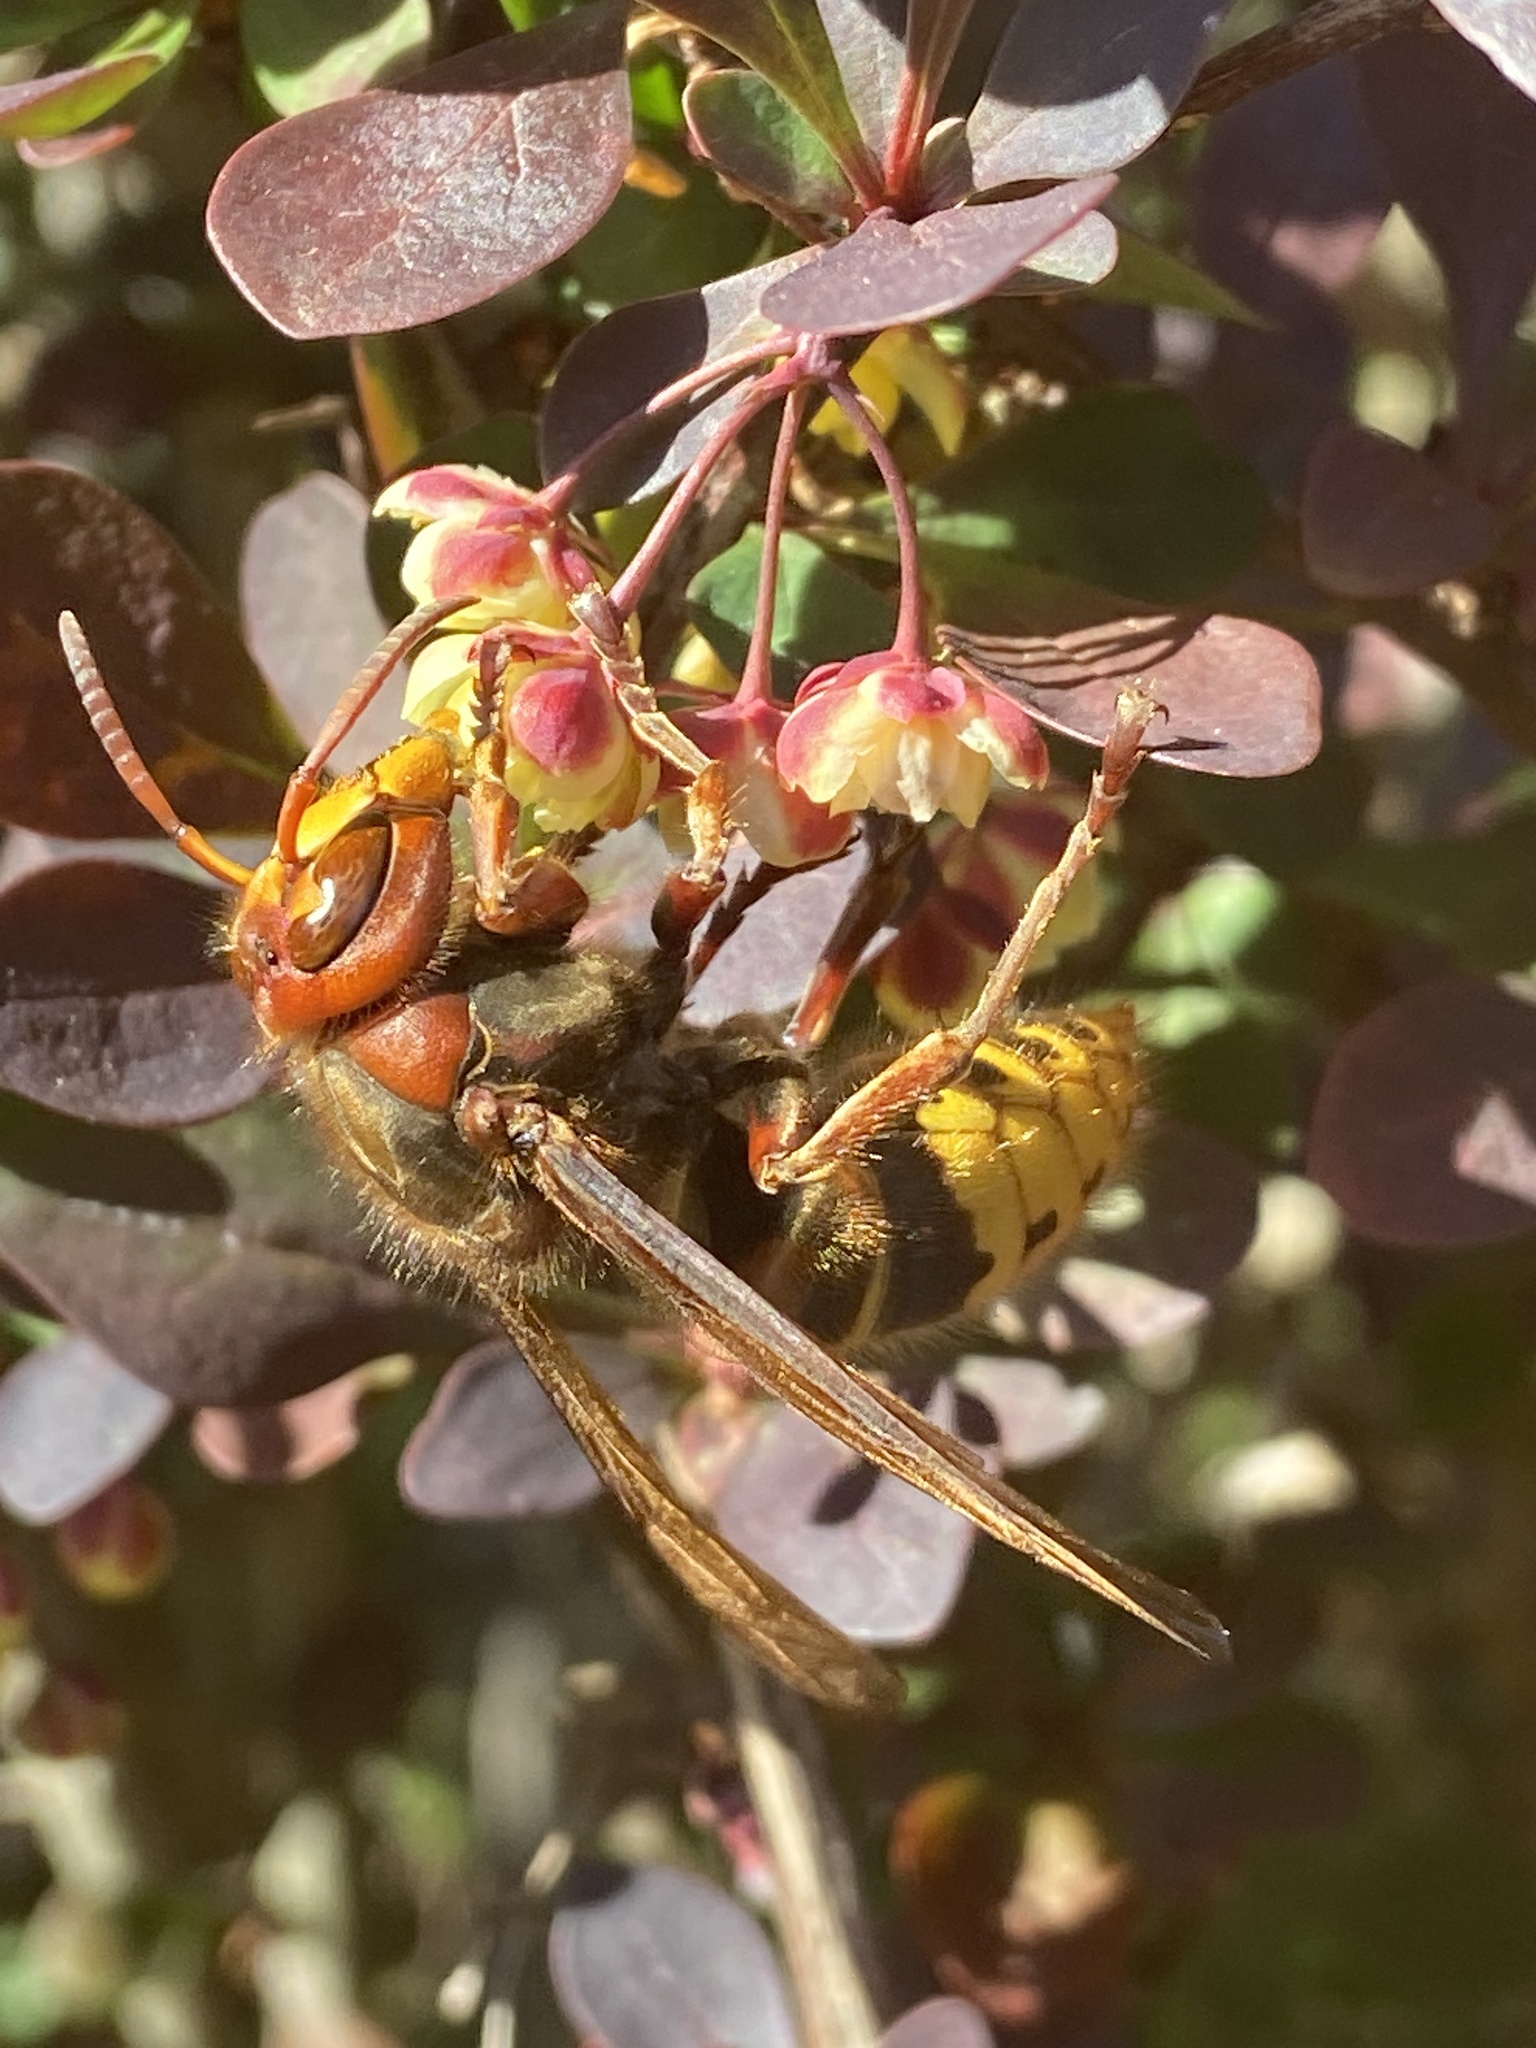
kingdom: Animalia
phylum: Arthropoda
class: Insecta
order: Hymenoptera
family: Vespidae
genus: Vespa
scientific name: Vespa crabro
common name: Hornet
